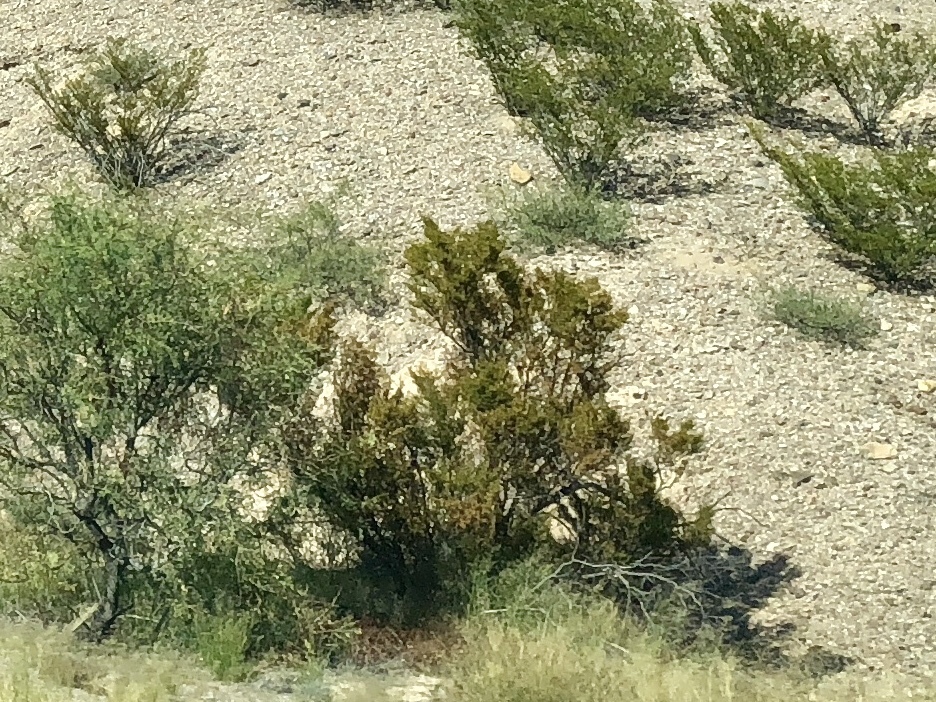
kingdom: Plantae
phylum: Tracheophyta
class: Magnoliopsida
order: Zygophyllales
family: Zygophyllaceae
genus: Larrea
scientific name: Larrea tridentata
